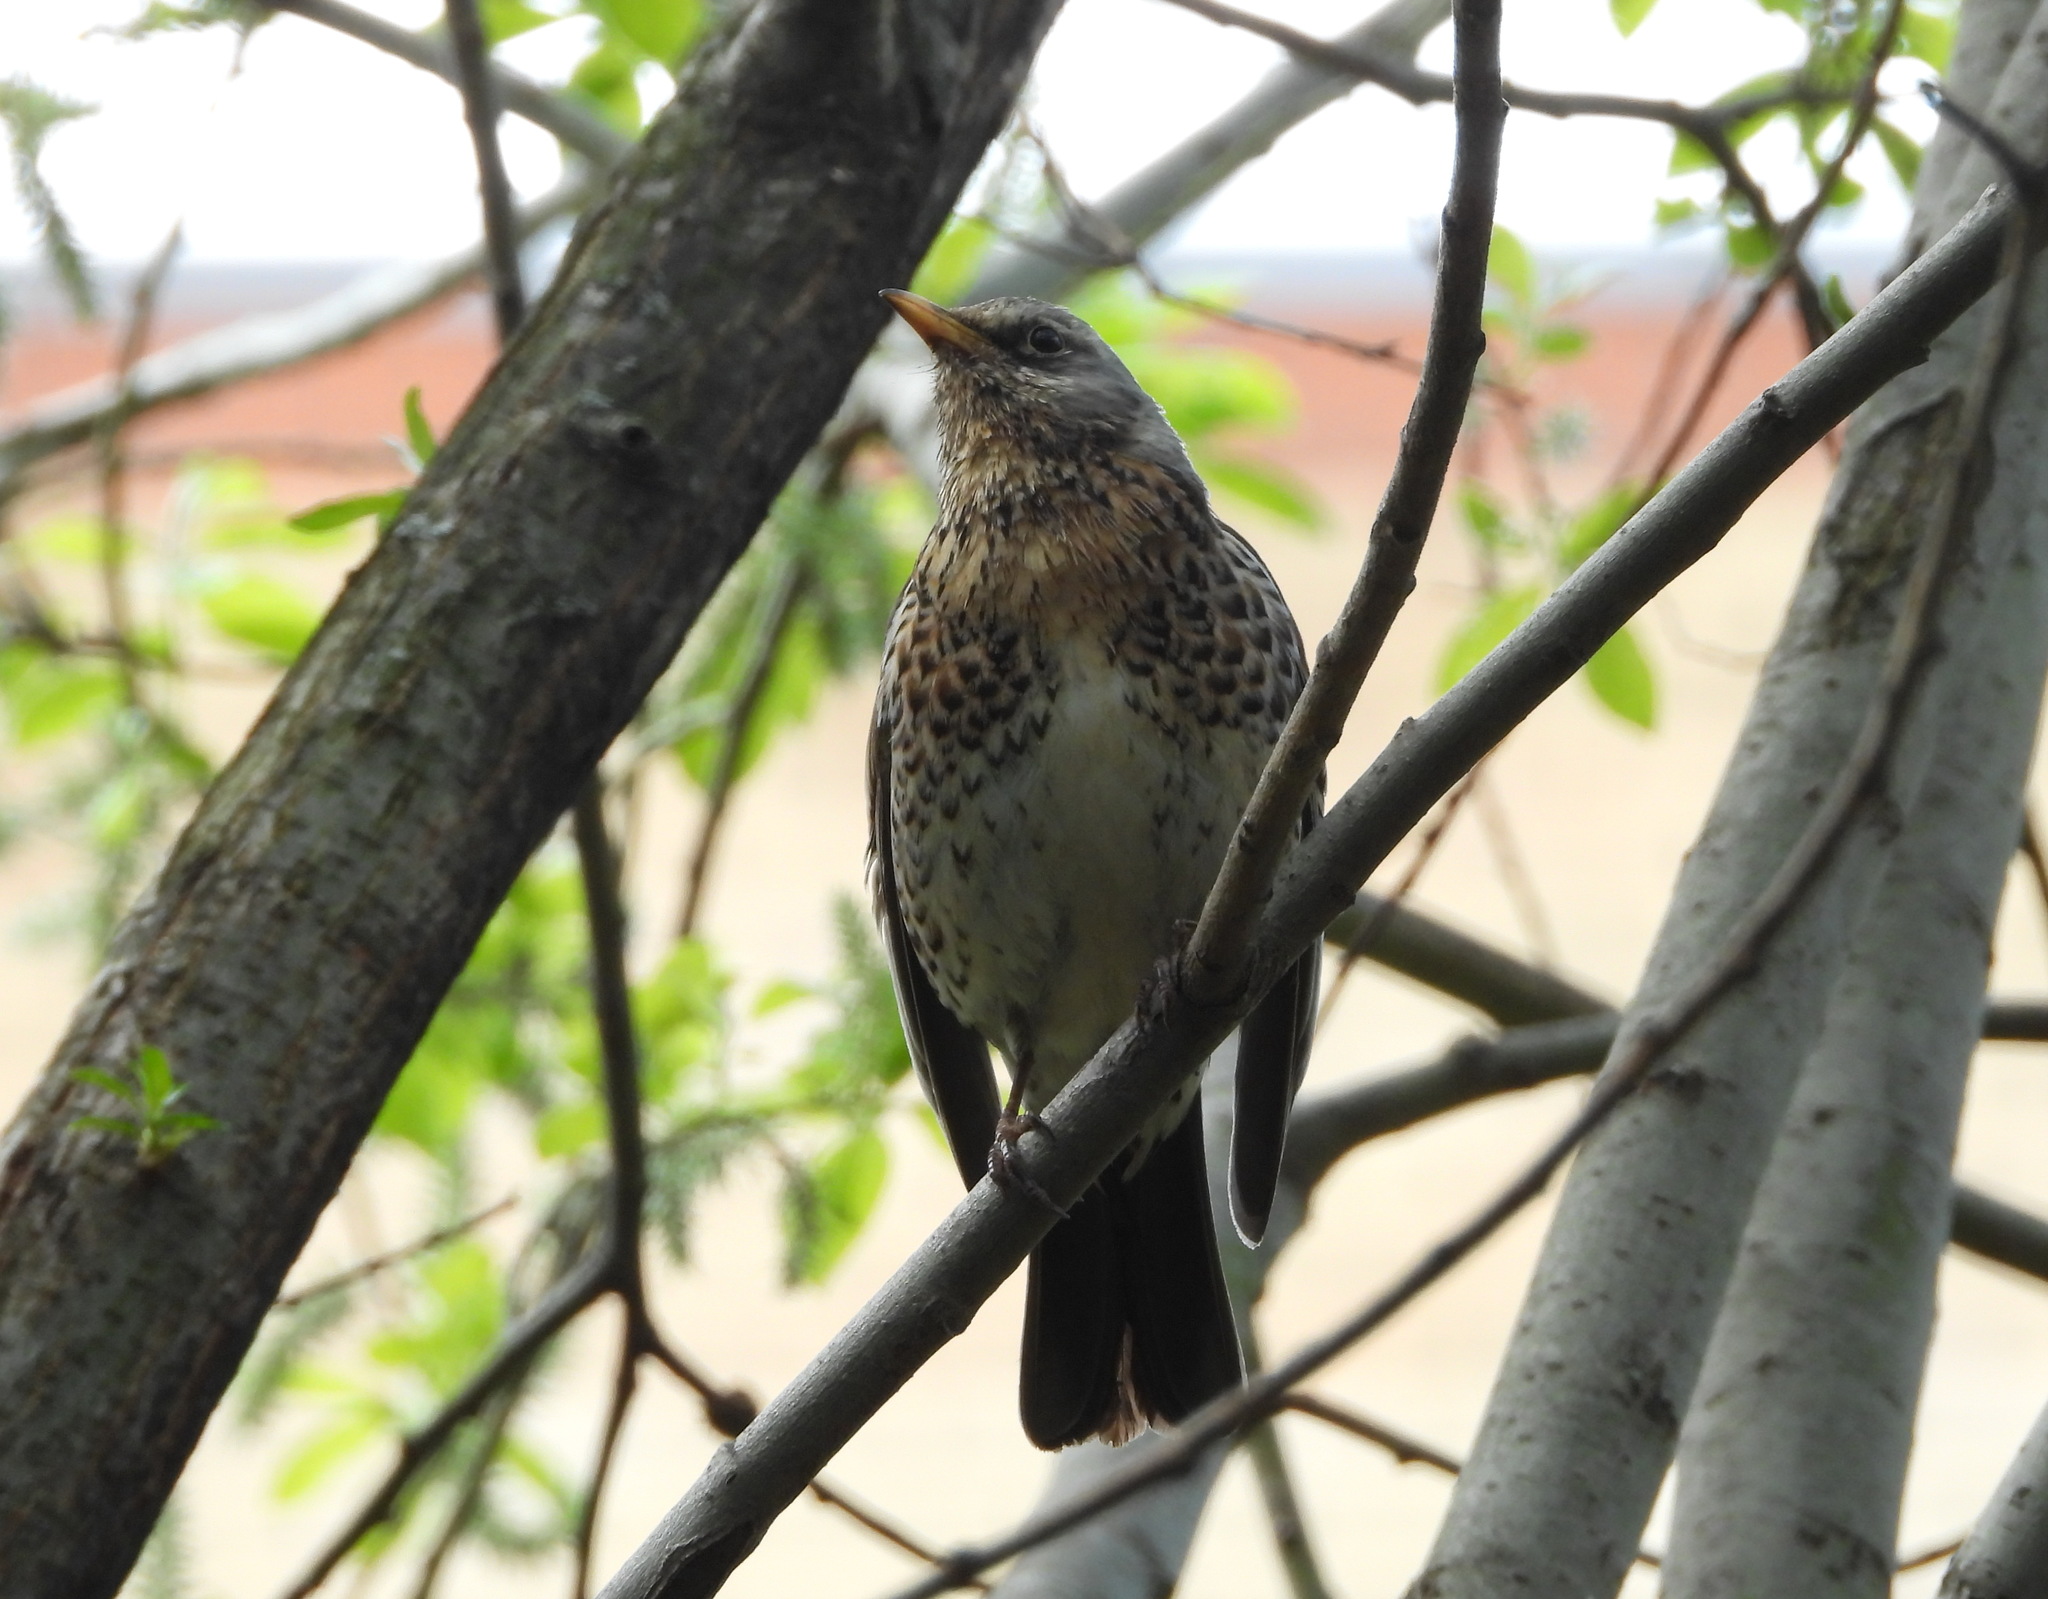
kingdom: Animalia
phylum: Chordata
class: Aves
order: Passeriformes
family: Turdidae
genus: Turdus
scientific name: Turdus pilaris
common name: Fieldfare
